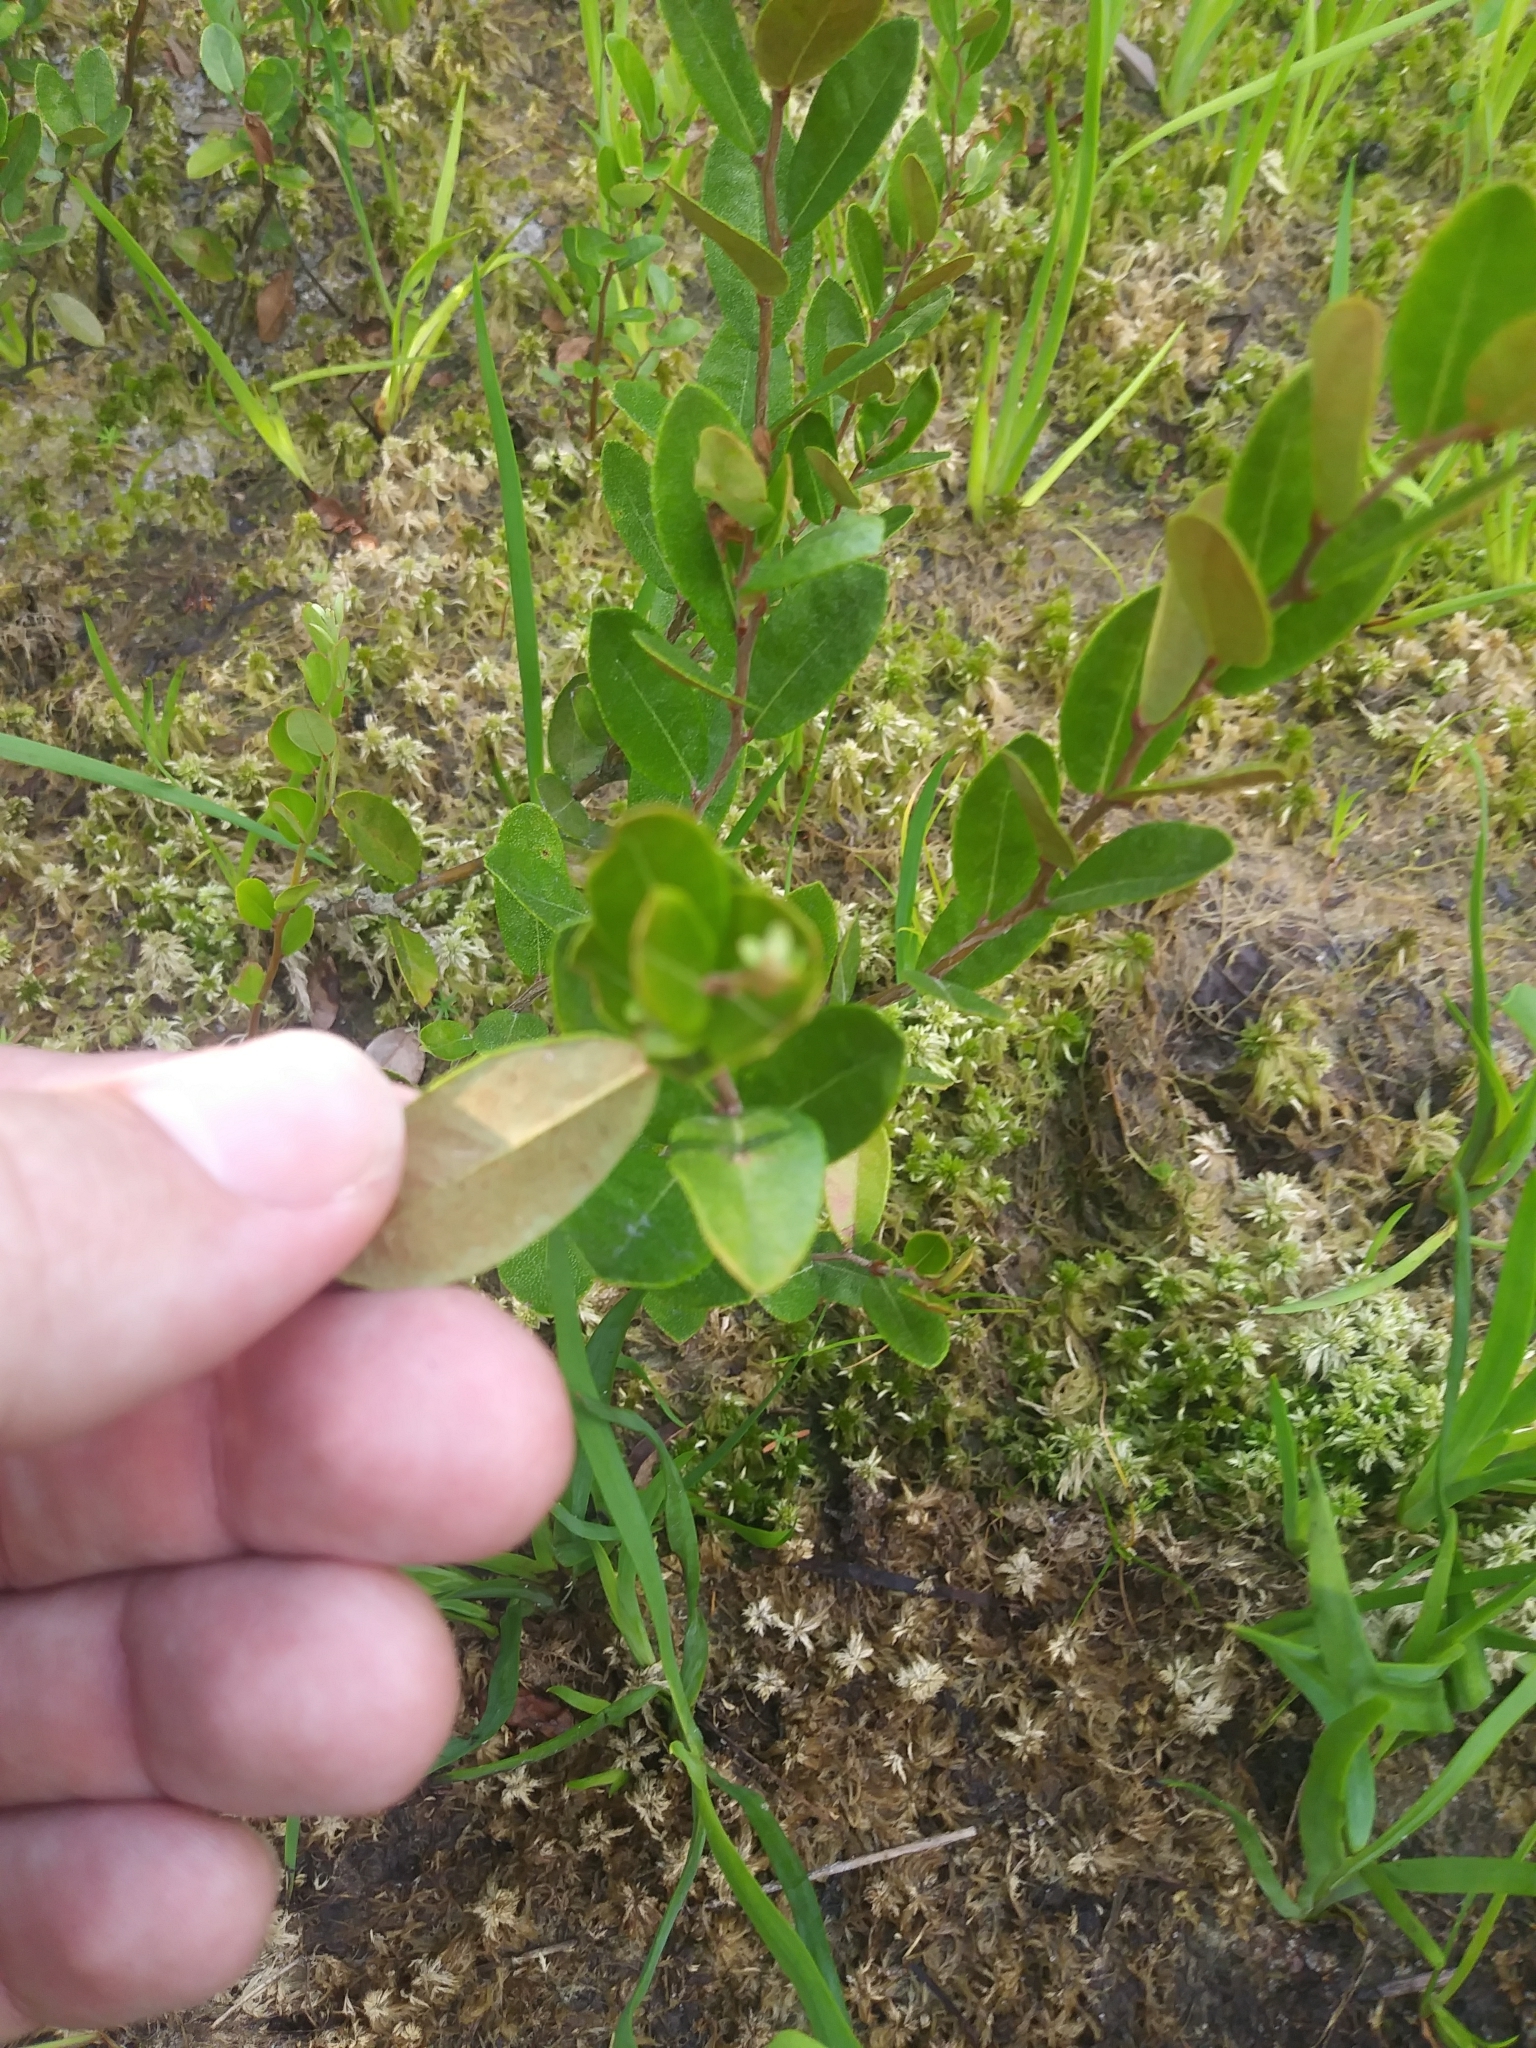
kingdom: Plantae
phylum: Tracheophyta
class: Magnoliopsida
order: Ericales
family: Ericaceae
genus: Chamaedaphne
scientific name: Chamaedaphne calyculata
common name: Leatherleaf
